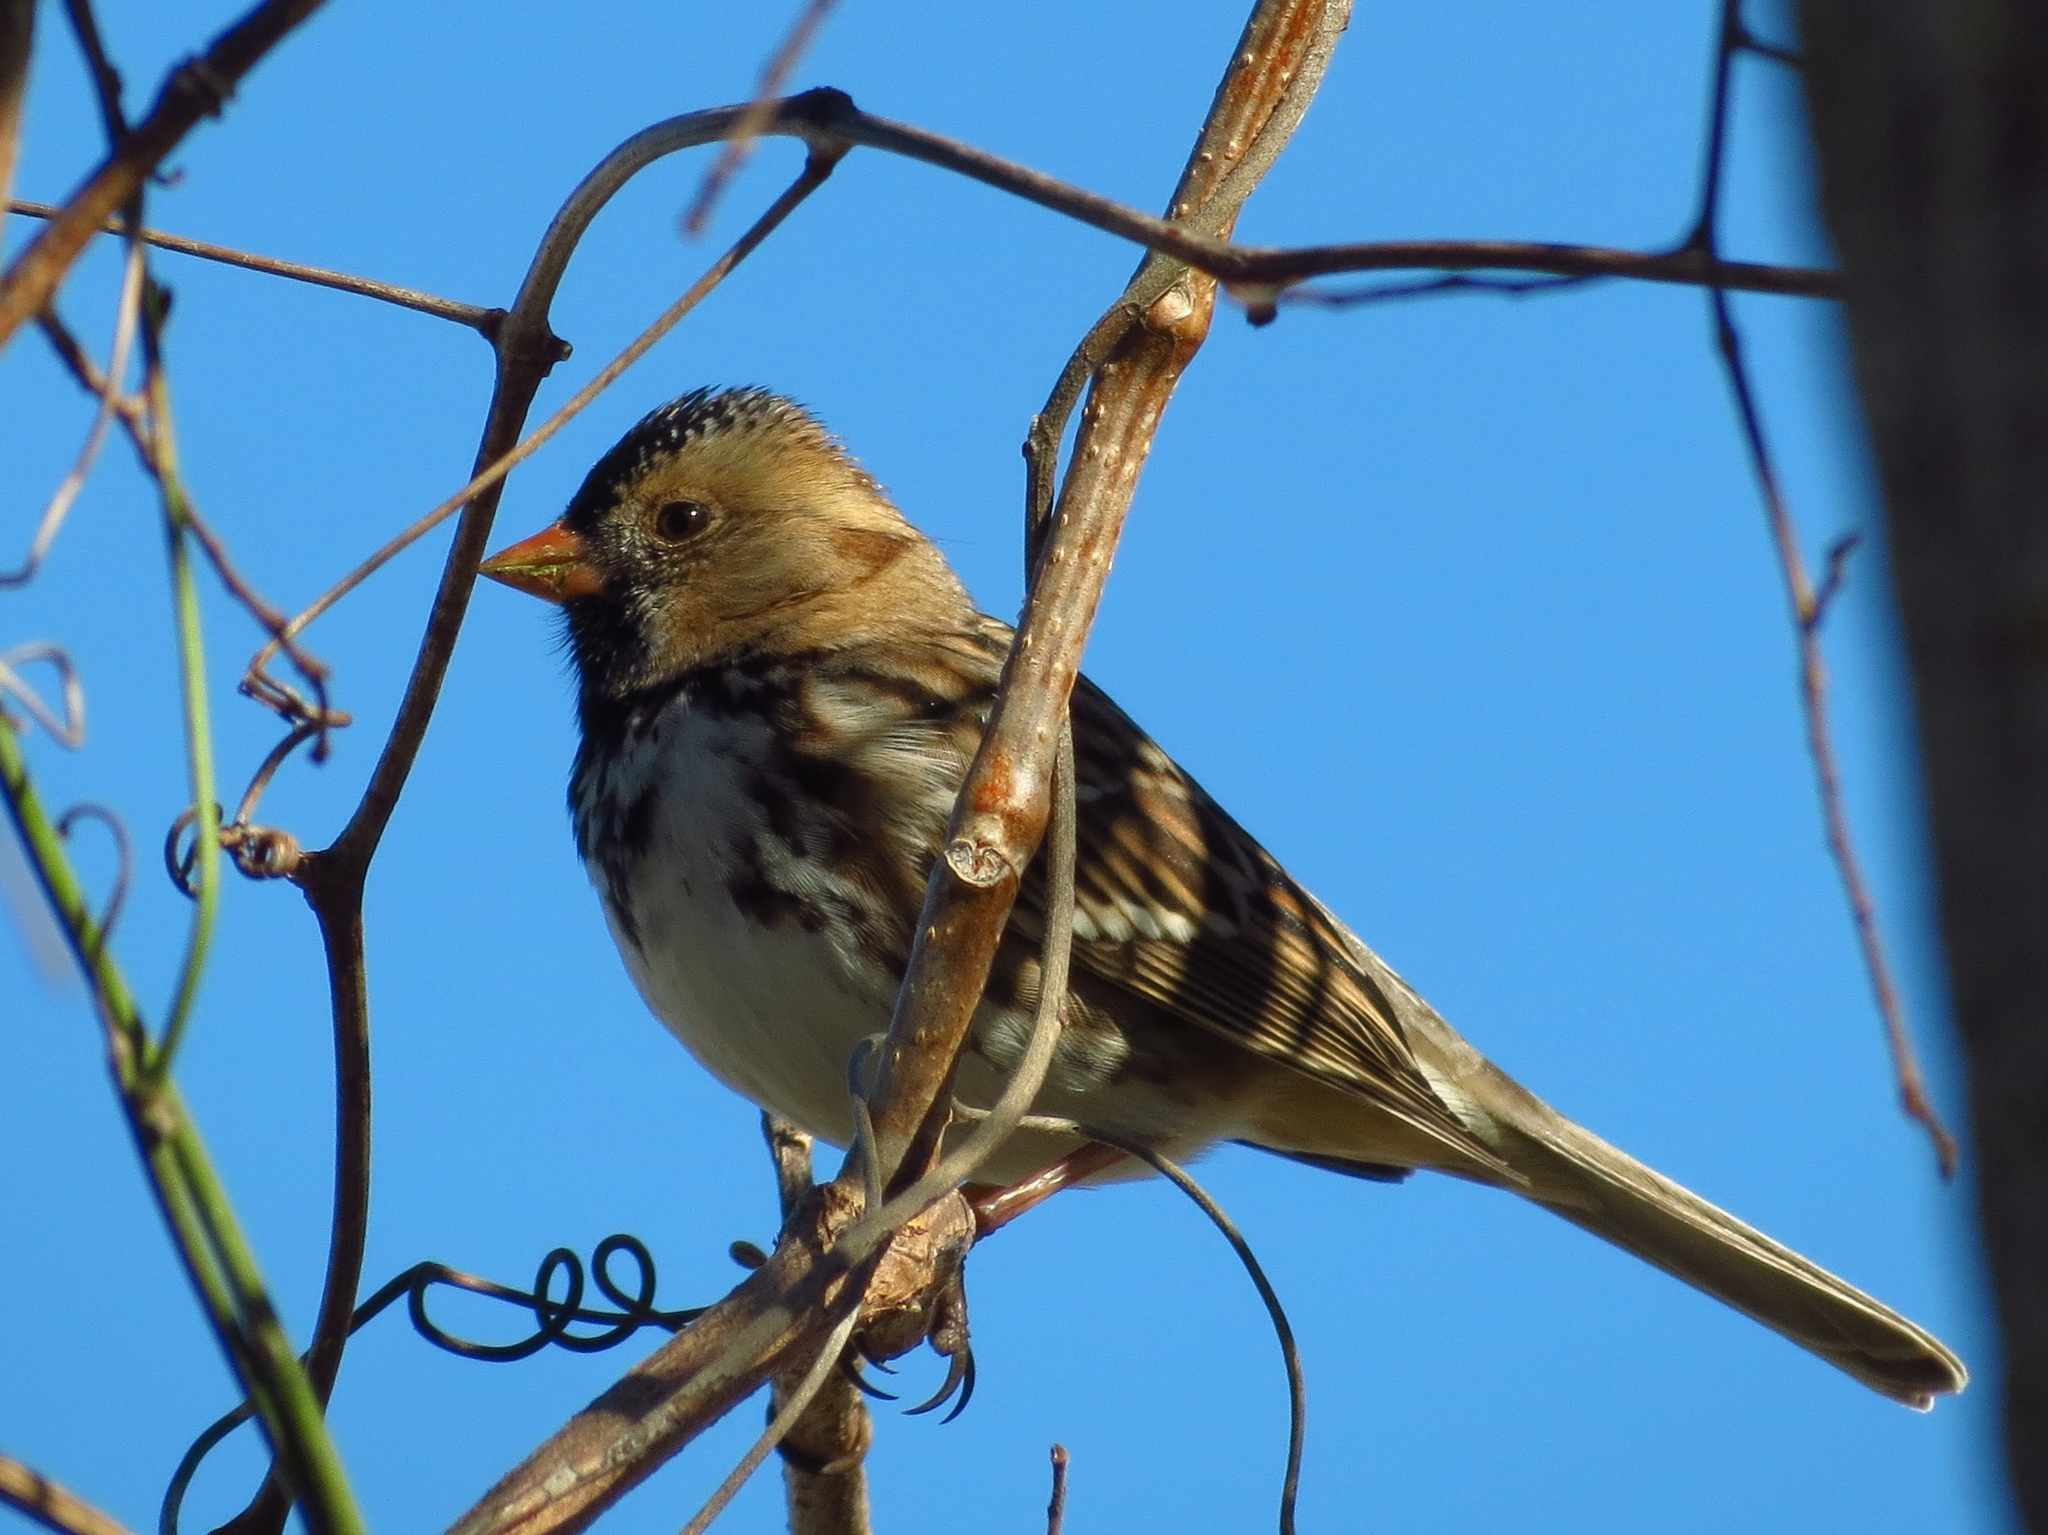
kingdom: Animalia
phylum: Chordata
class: Aves
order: Passeriformes
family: Passerellidae
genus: Zonotrichia
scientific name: Zonotrichia querula
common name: Harris's sparrow
